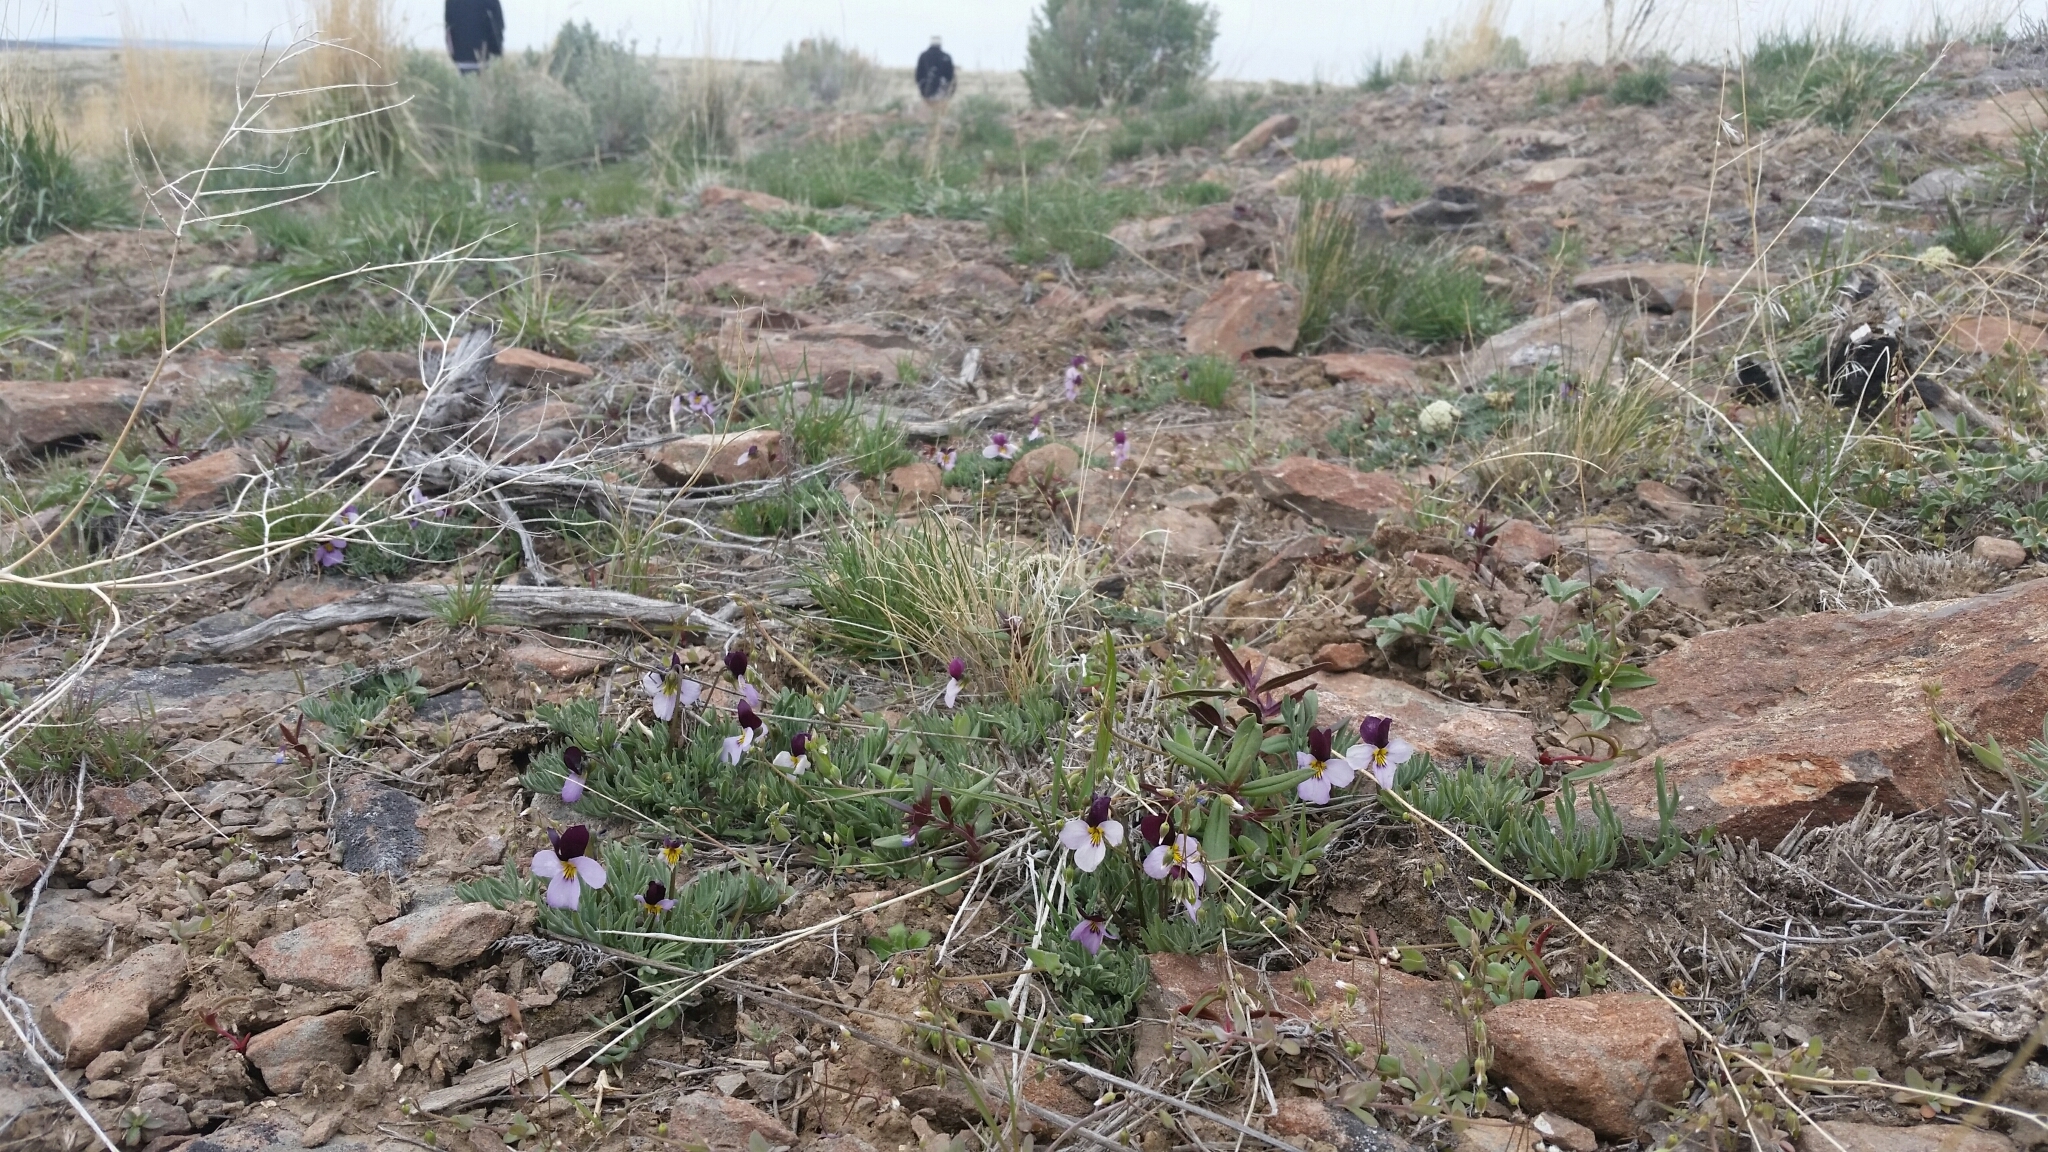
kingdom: Plantae
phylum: Tracheophyta
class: Magnoliopsida
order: Malpighiales
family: Violaceae
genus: Viola
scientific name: Viola beckwithii
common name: Beckwith's violet
